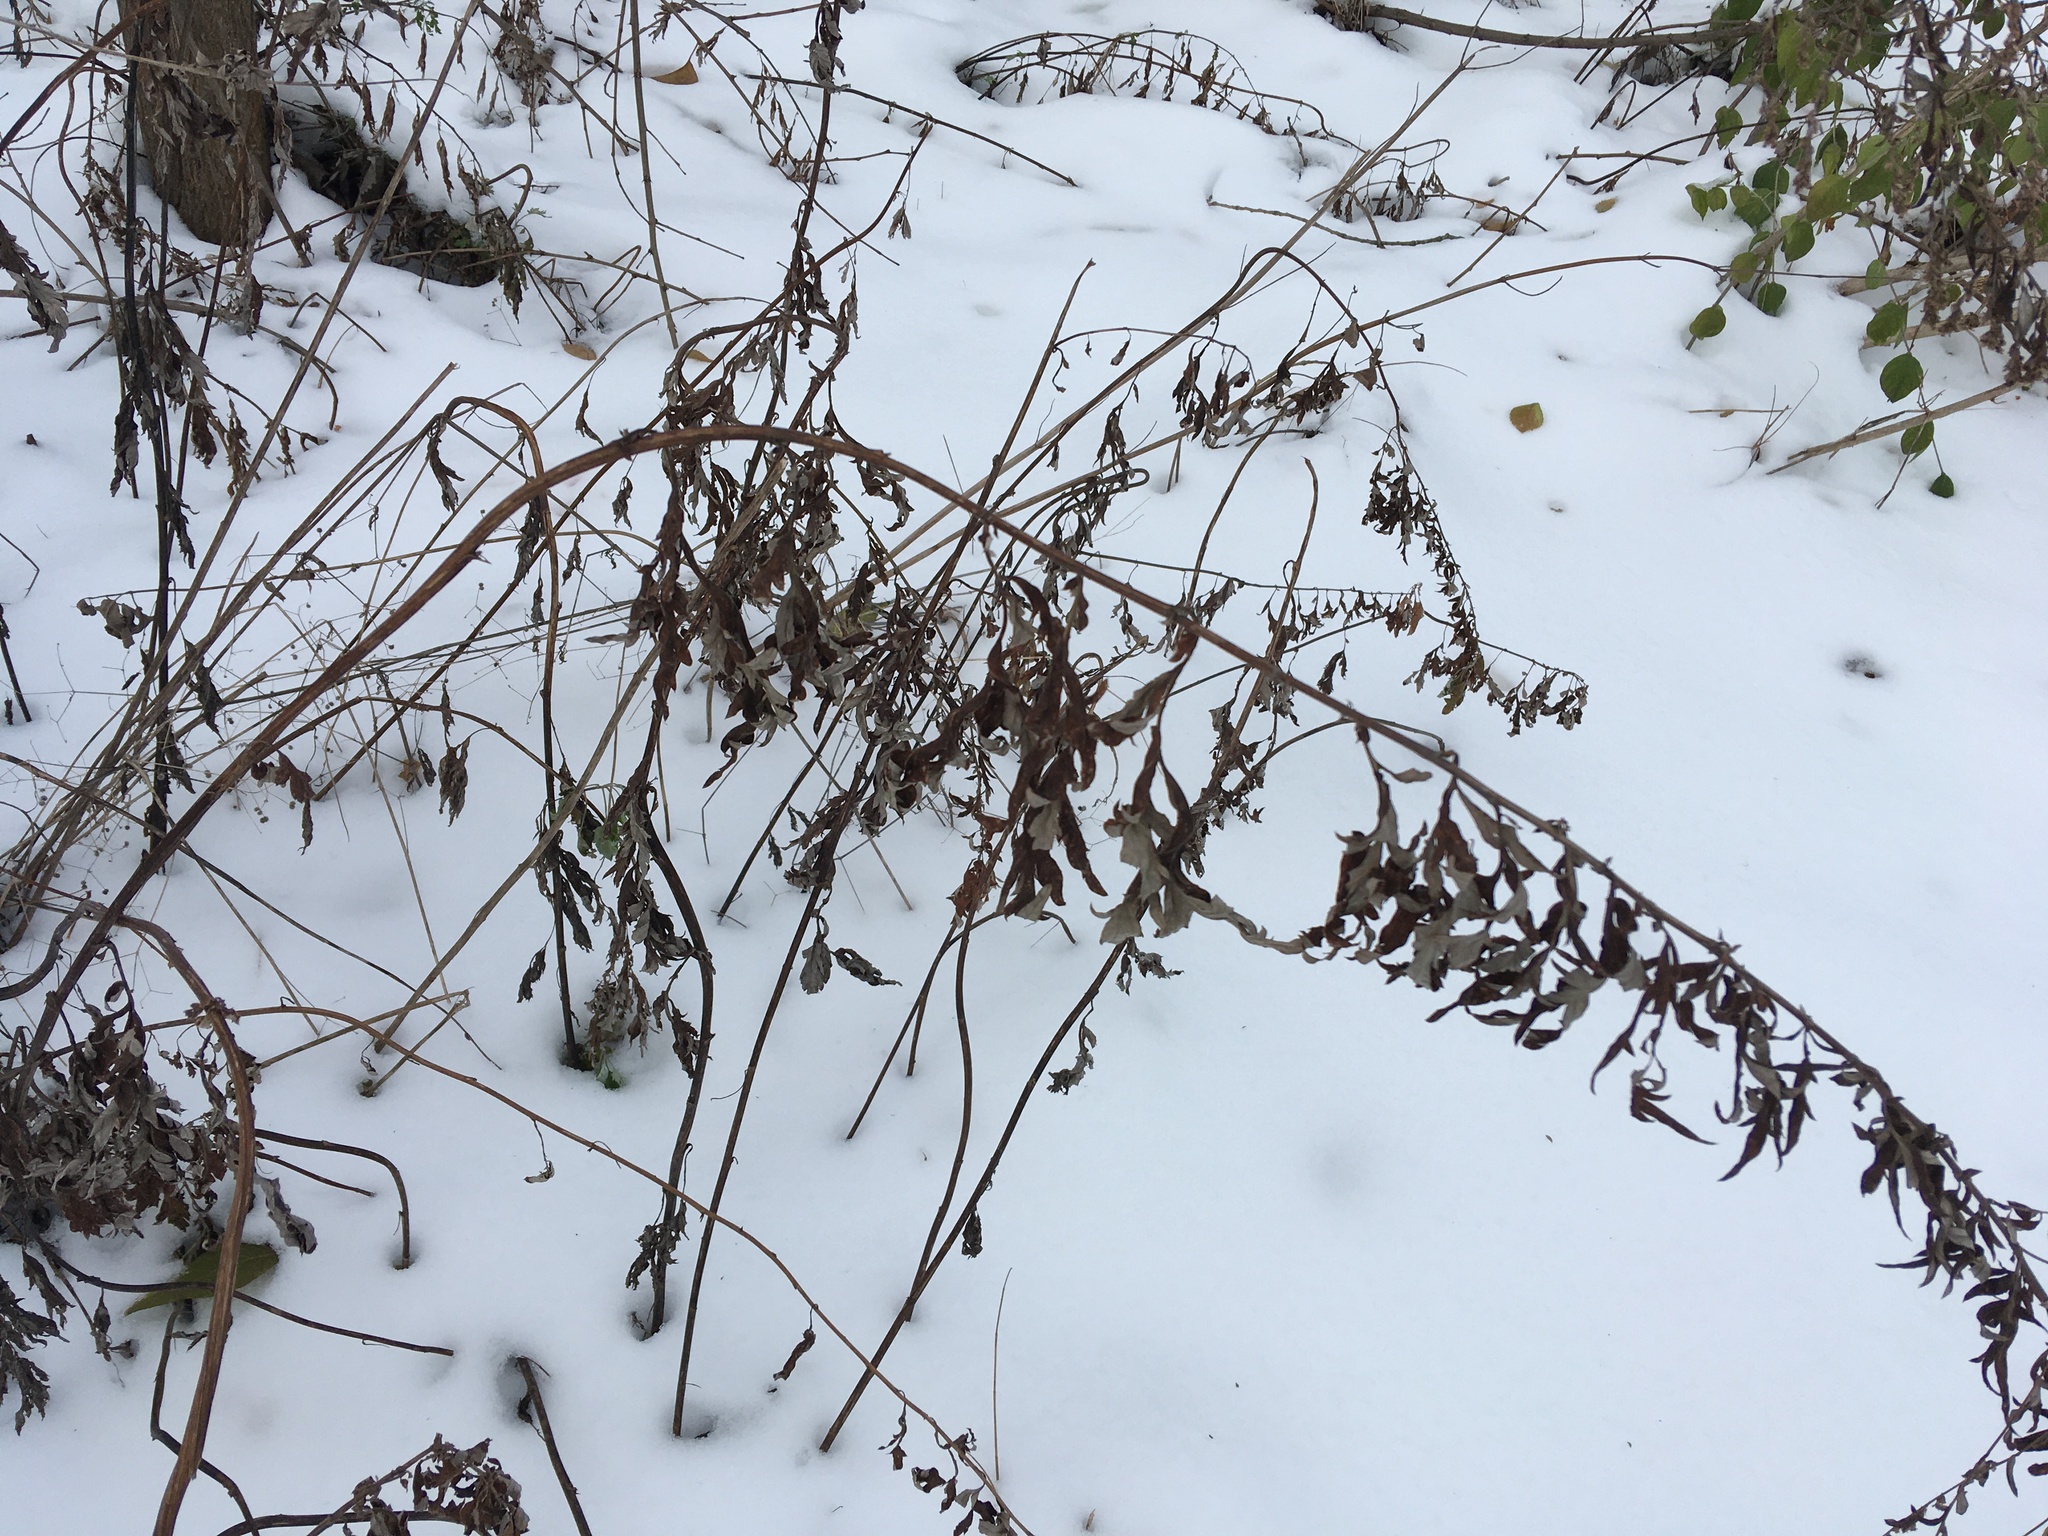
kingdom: Plantae
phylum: Tracheophyta
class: Magnoliopsida
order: Asterales
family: Asteraceae
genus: Artemisia
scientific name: Artemisia vulgaris
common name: Mugwort
